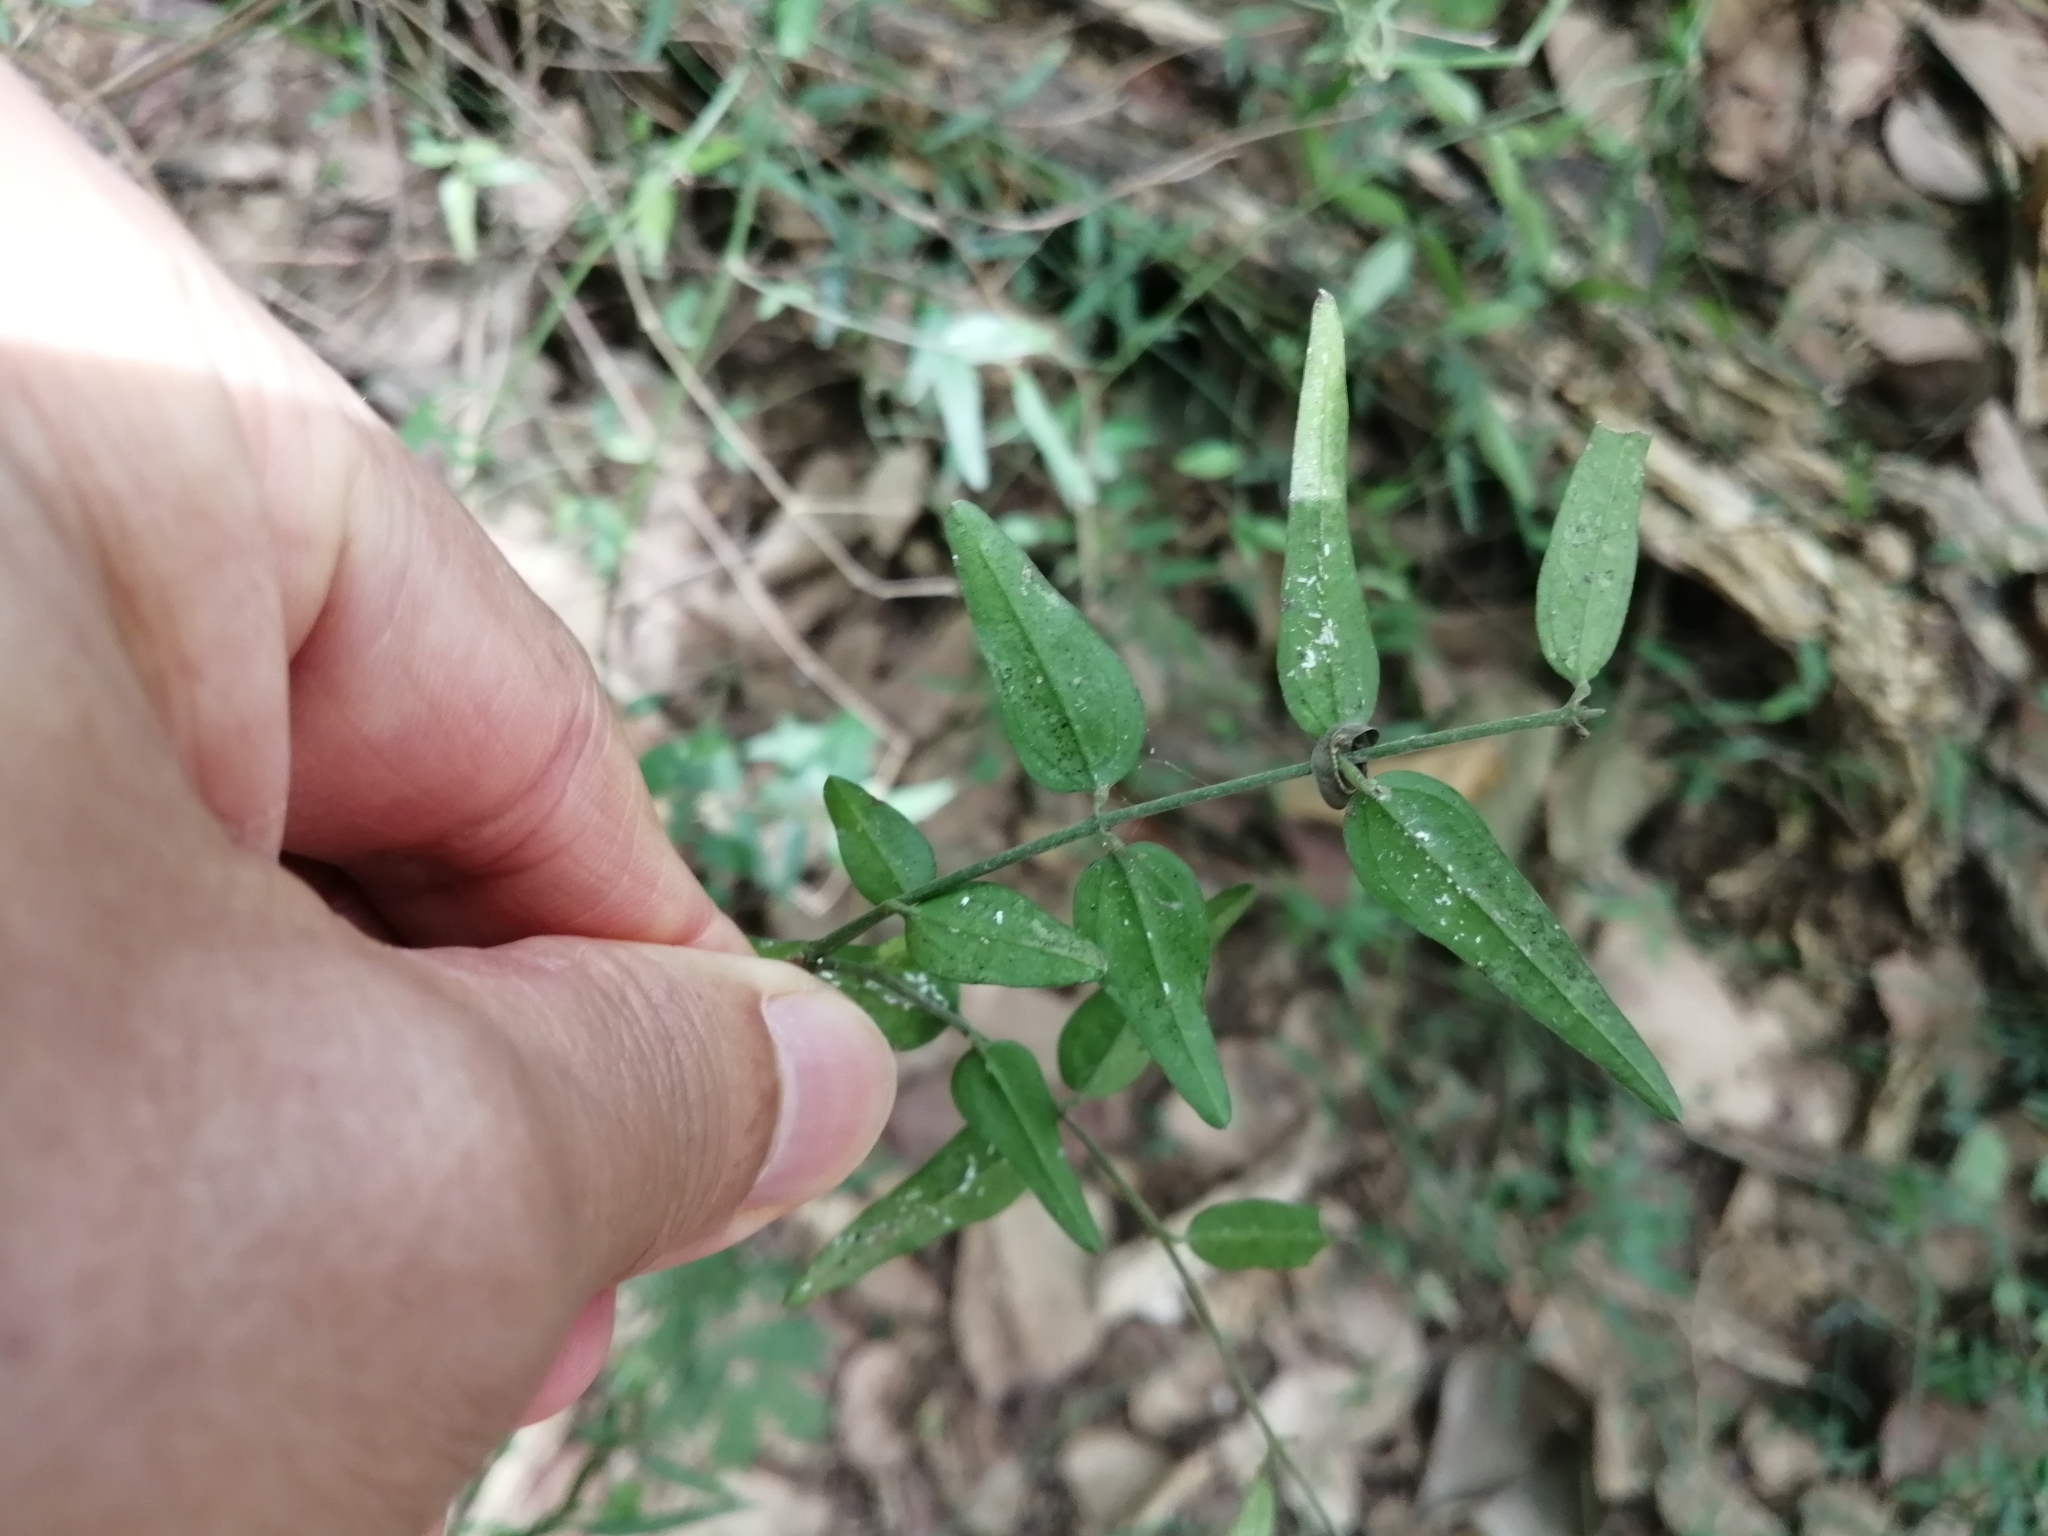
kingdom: Plantae
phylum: Tracheophyta
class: Magnoliopsida
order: Lamiales
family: Oleaceae
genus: Jasminum
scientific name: Jasminum nervosum
